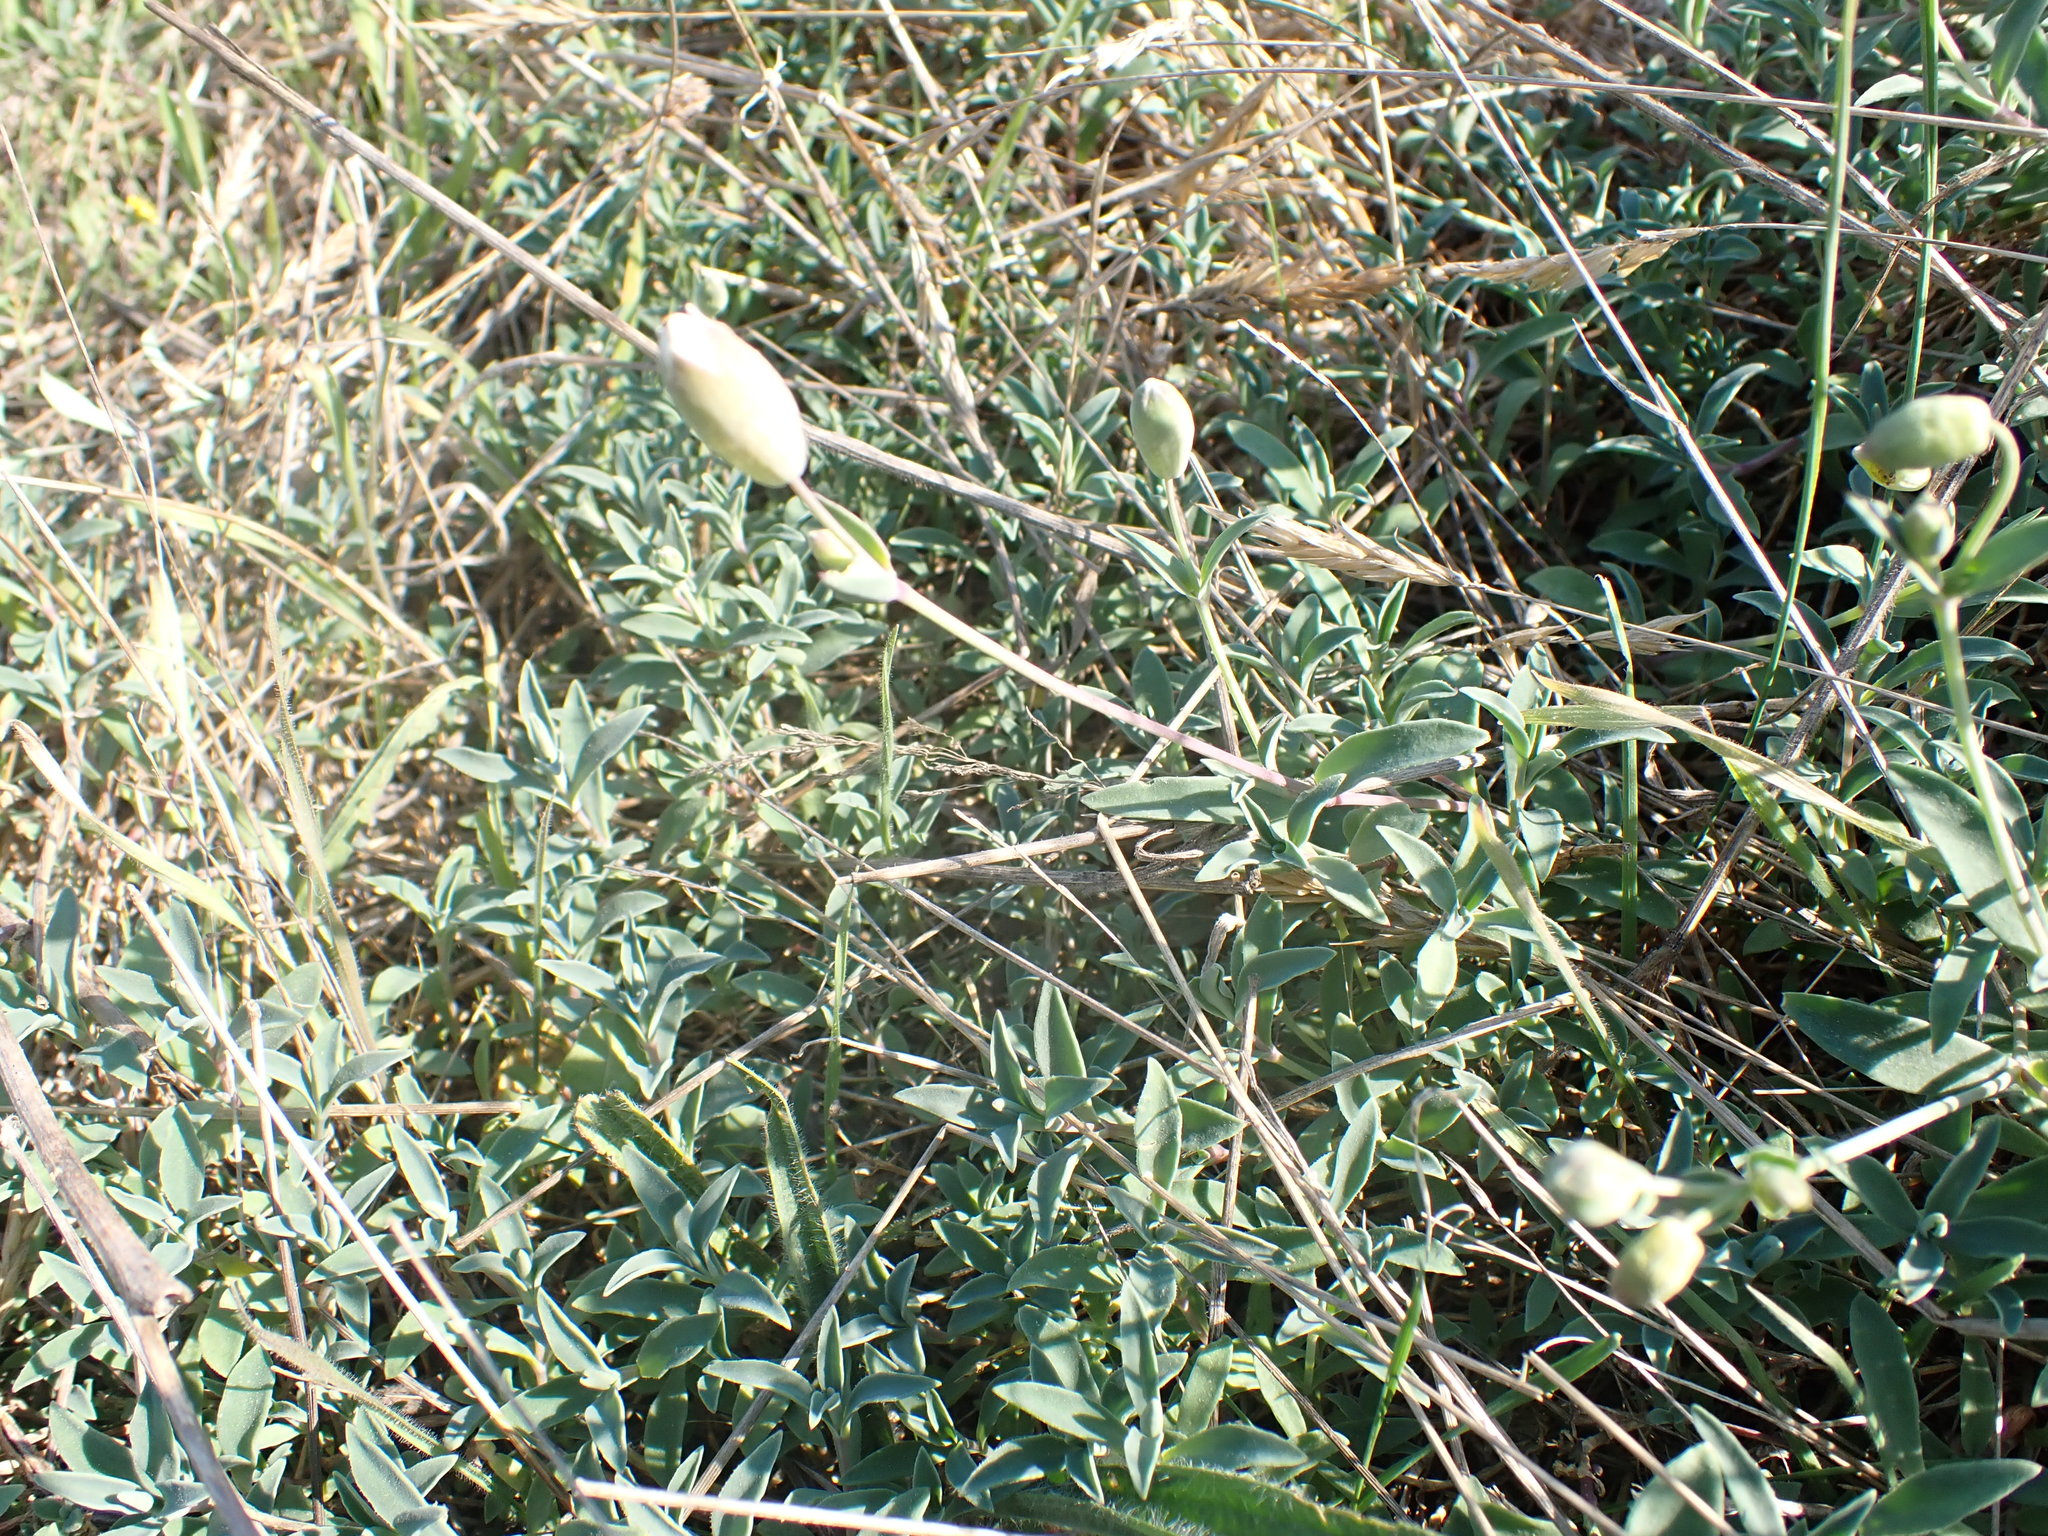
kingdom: Plantae
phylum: Tracheophyta
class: Magnoliopsida
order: Caryophyllales
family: Caryophyllaceae
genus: Silene
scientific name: Silene uniflora
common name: Sea campion
